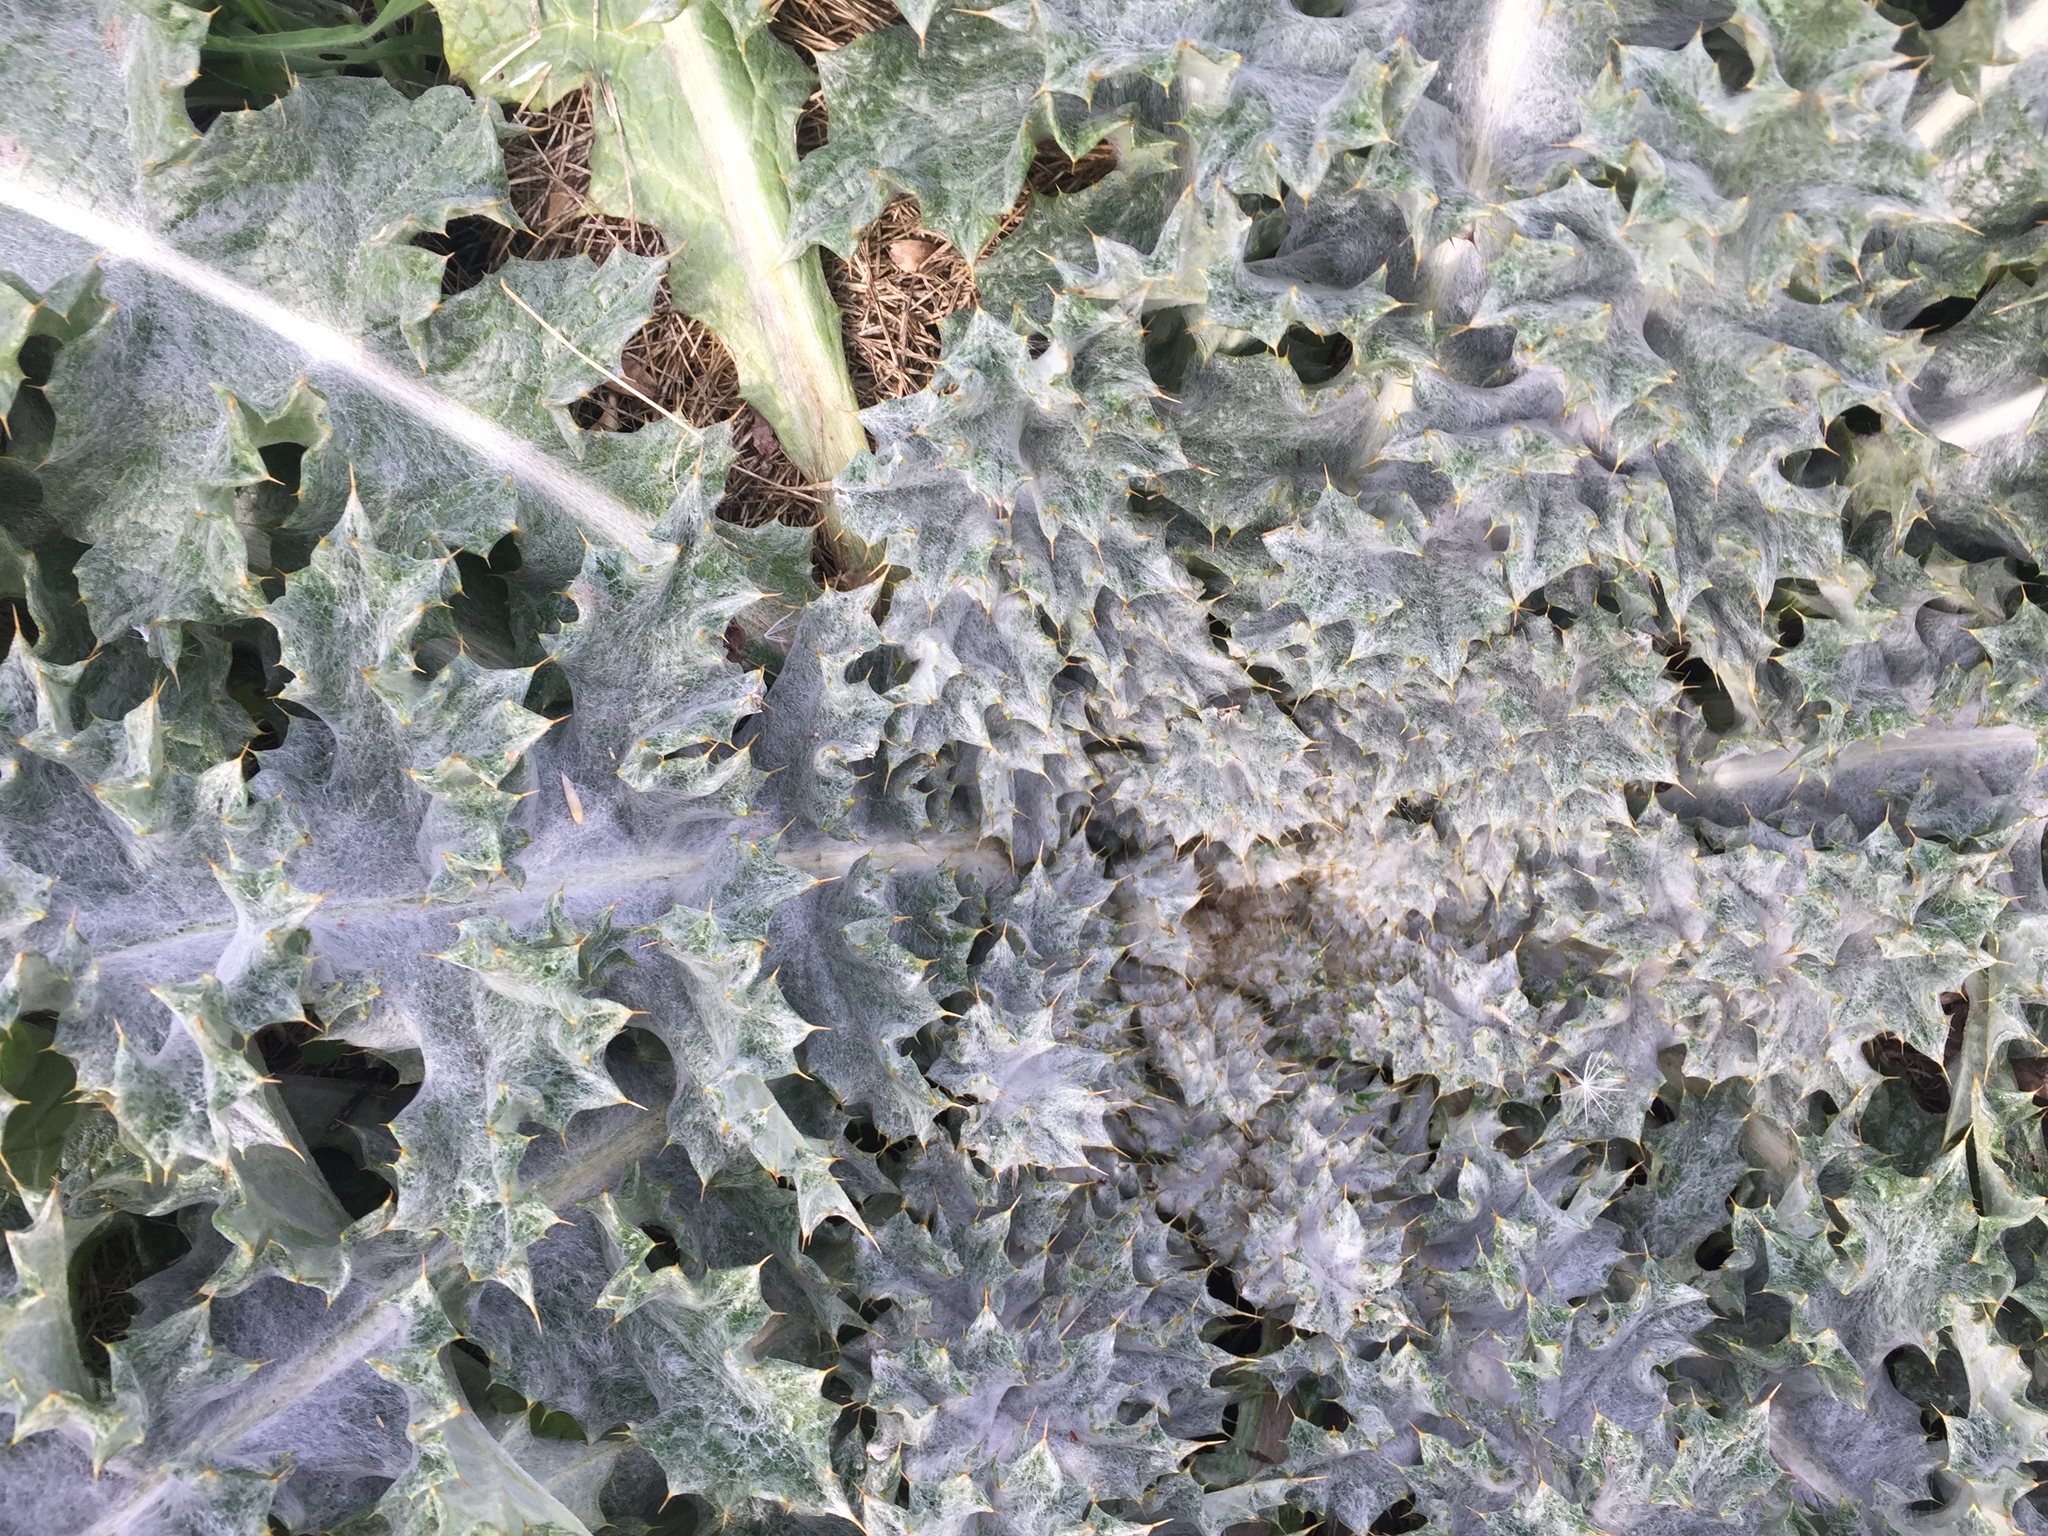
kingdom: Plantae
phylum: Tracheophyta
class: Magnoliopsida
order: Asterales
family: Asteraceae
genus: Onopordum
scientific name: Onopordum acanthium
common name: Scotch thistle
